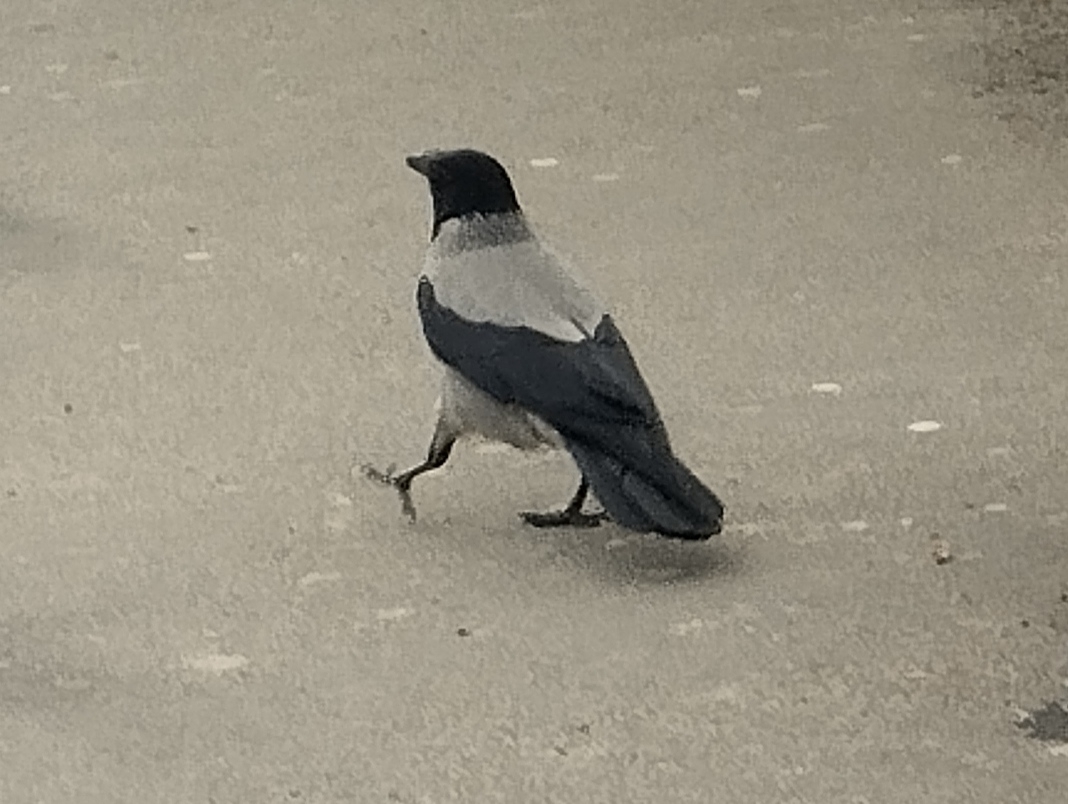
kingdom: Animalia
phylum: Chordata
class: Aves
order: Passeriformes
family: Corvidae
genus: Corvus
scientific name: Corvus cornix
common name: Hooded crow
